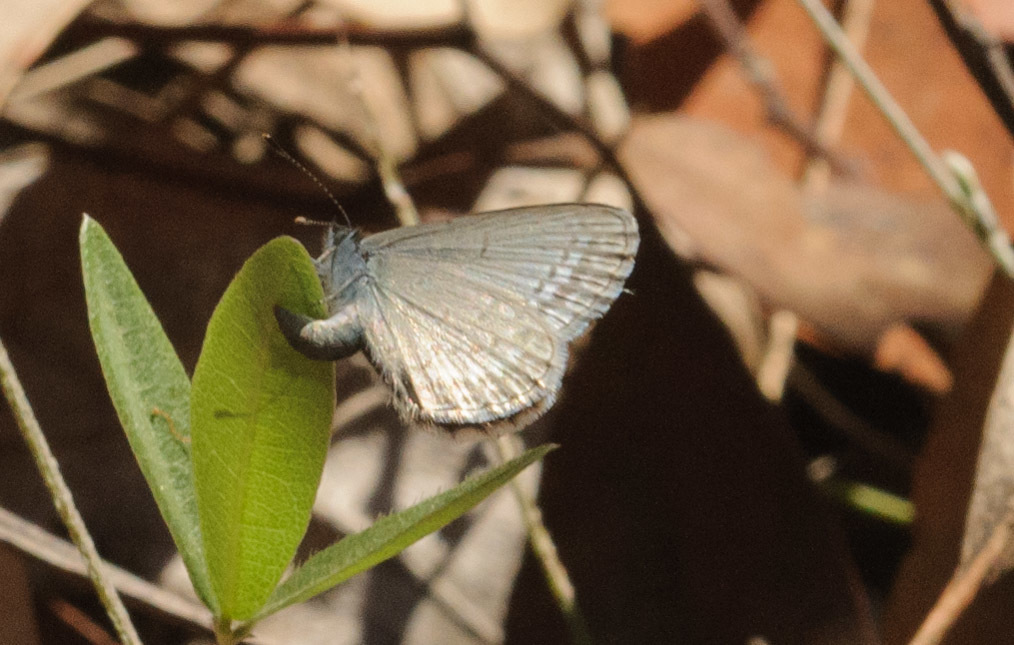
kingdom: Animalia
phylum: Arthropoda
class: Insecta
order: Lepidoptera
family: Lycaenidae
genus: Zizina
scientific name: Zizina labradus
